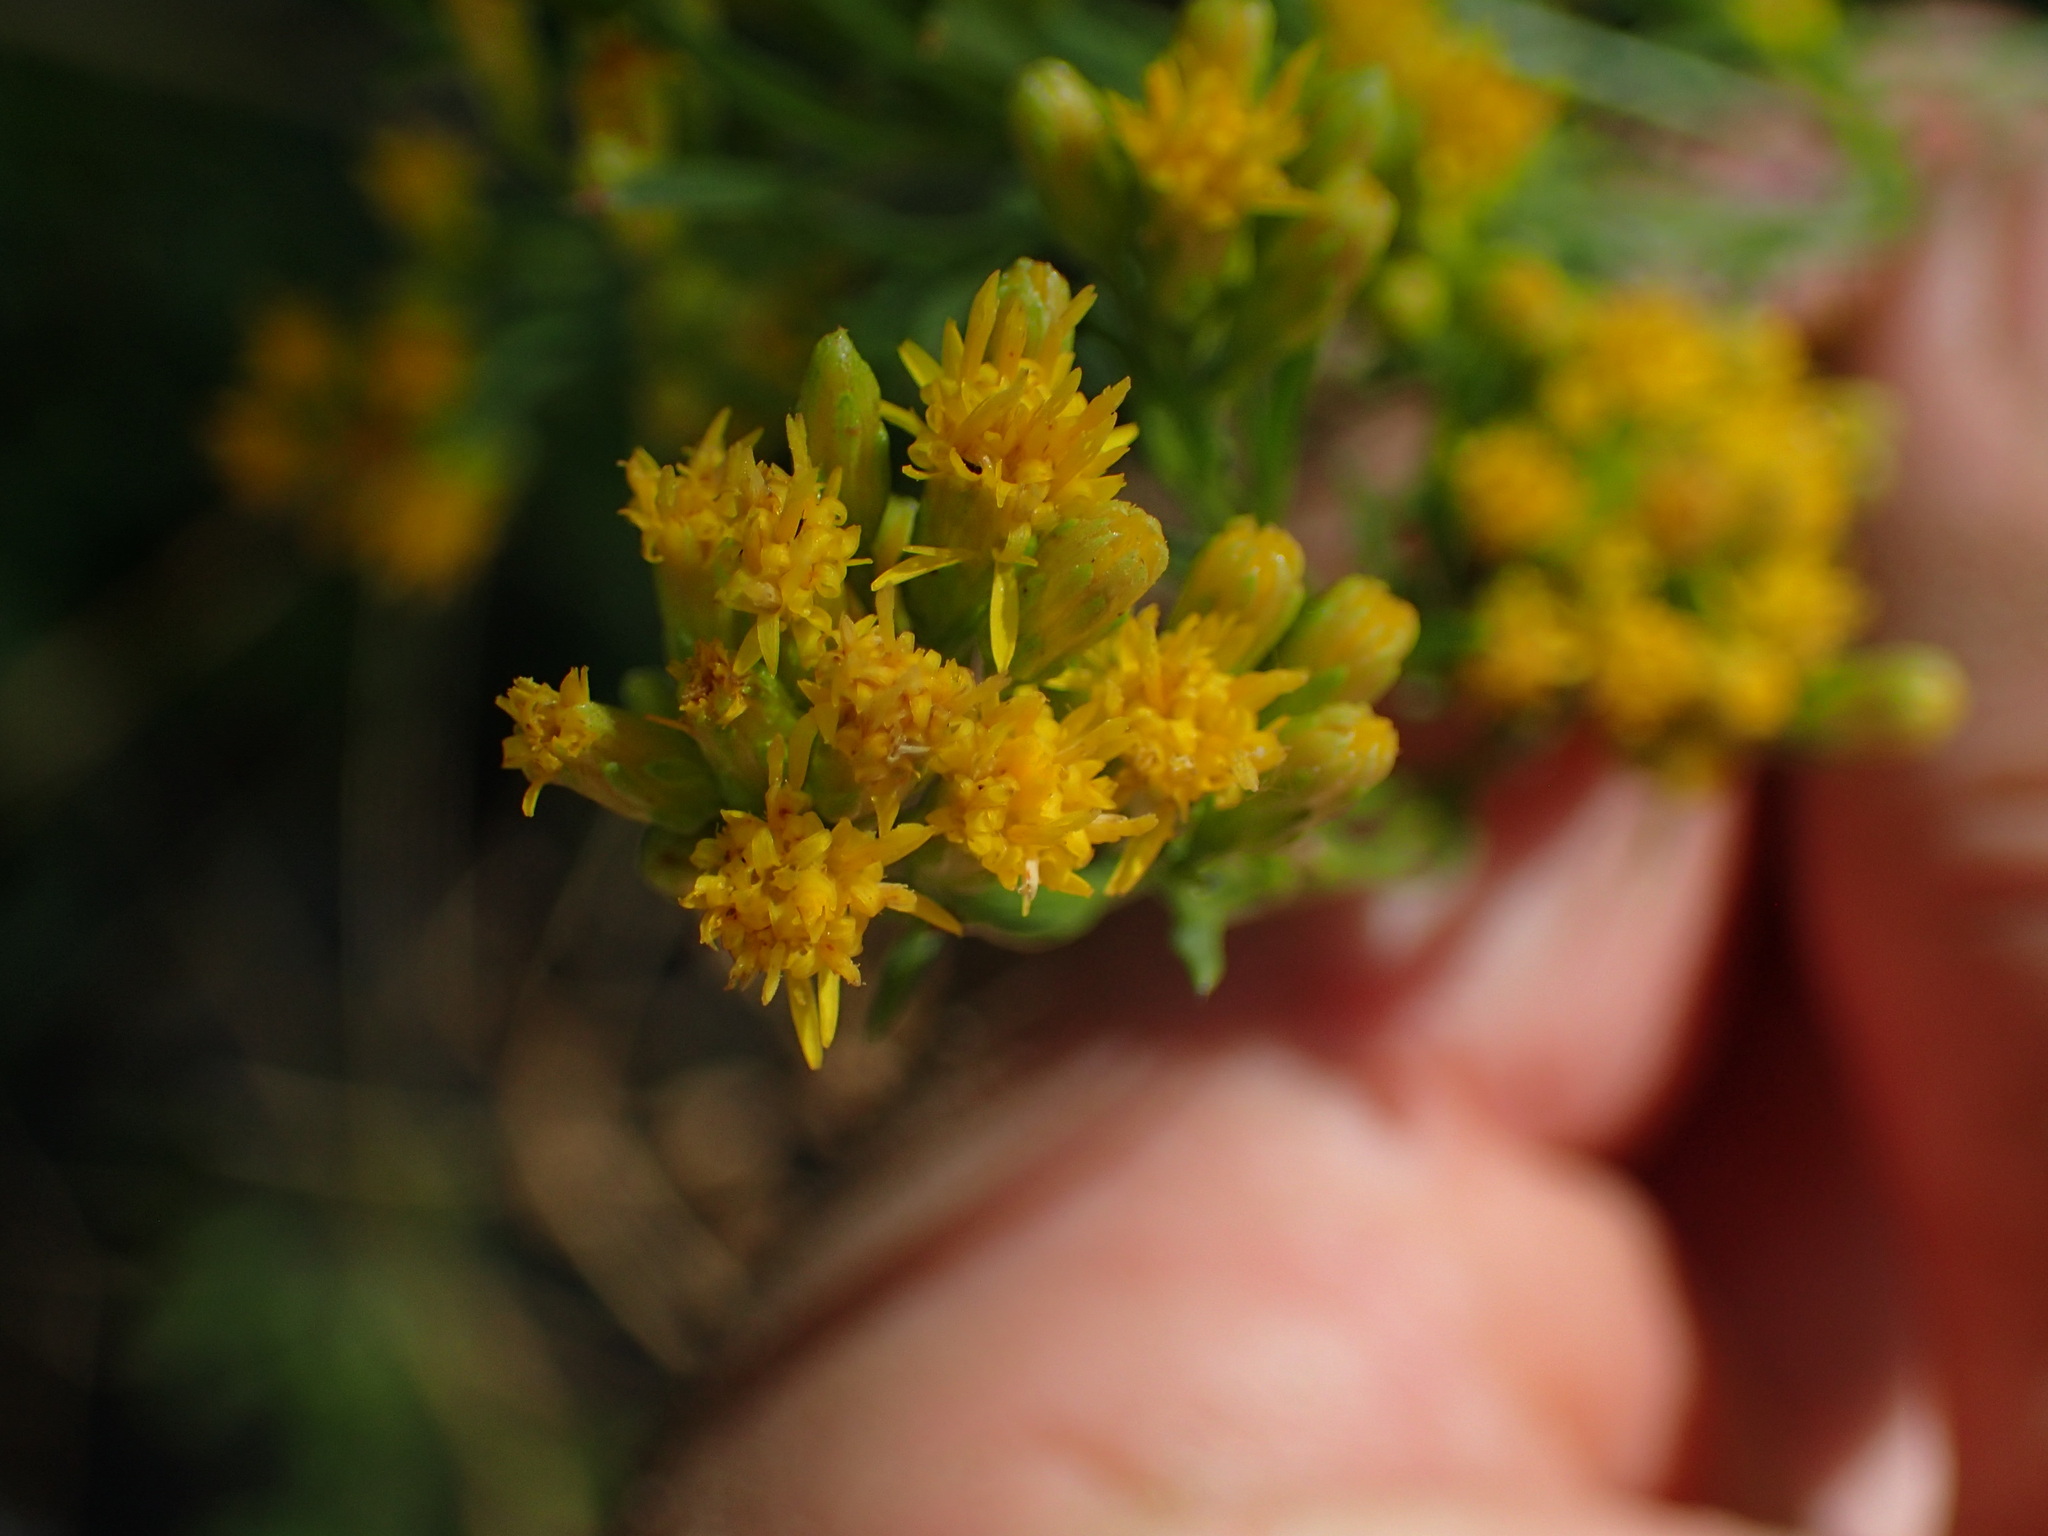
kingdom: Plantae
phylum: Tracheophyta
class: Magnoliopsida
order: Asterales
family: Asteraceae
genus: Euthamia
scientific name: Euthamia occidentalis
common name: Western goldentop
